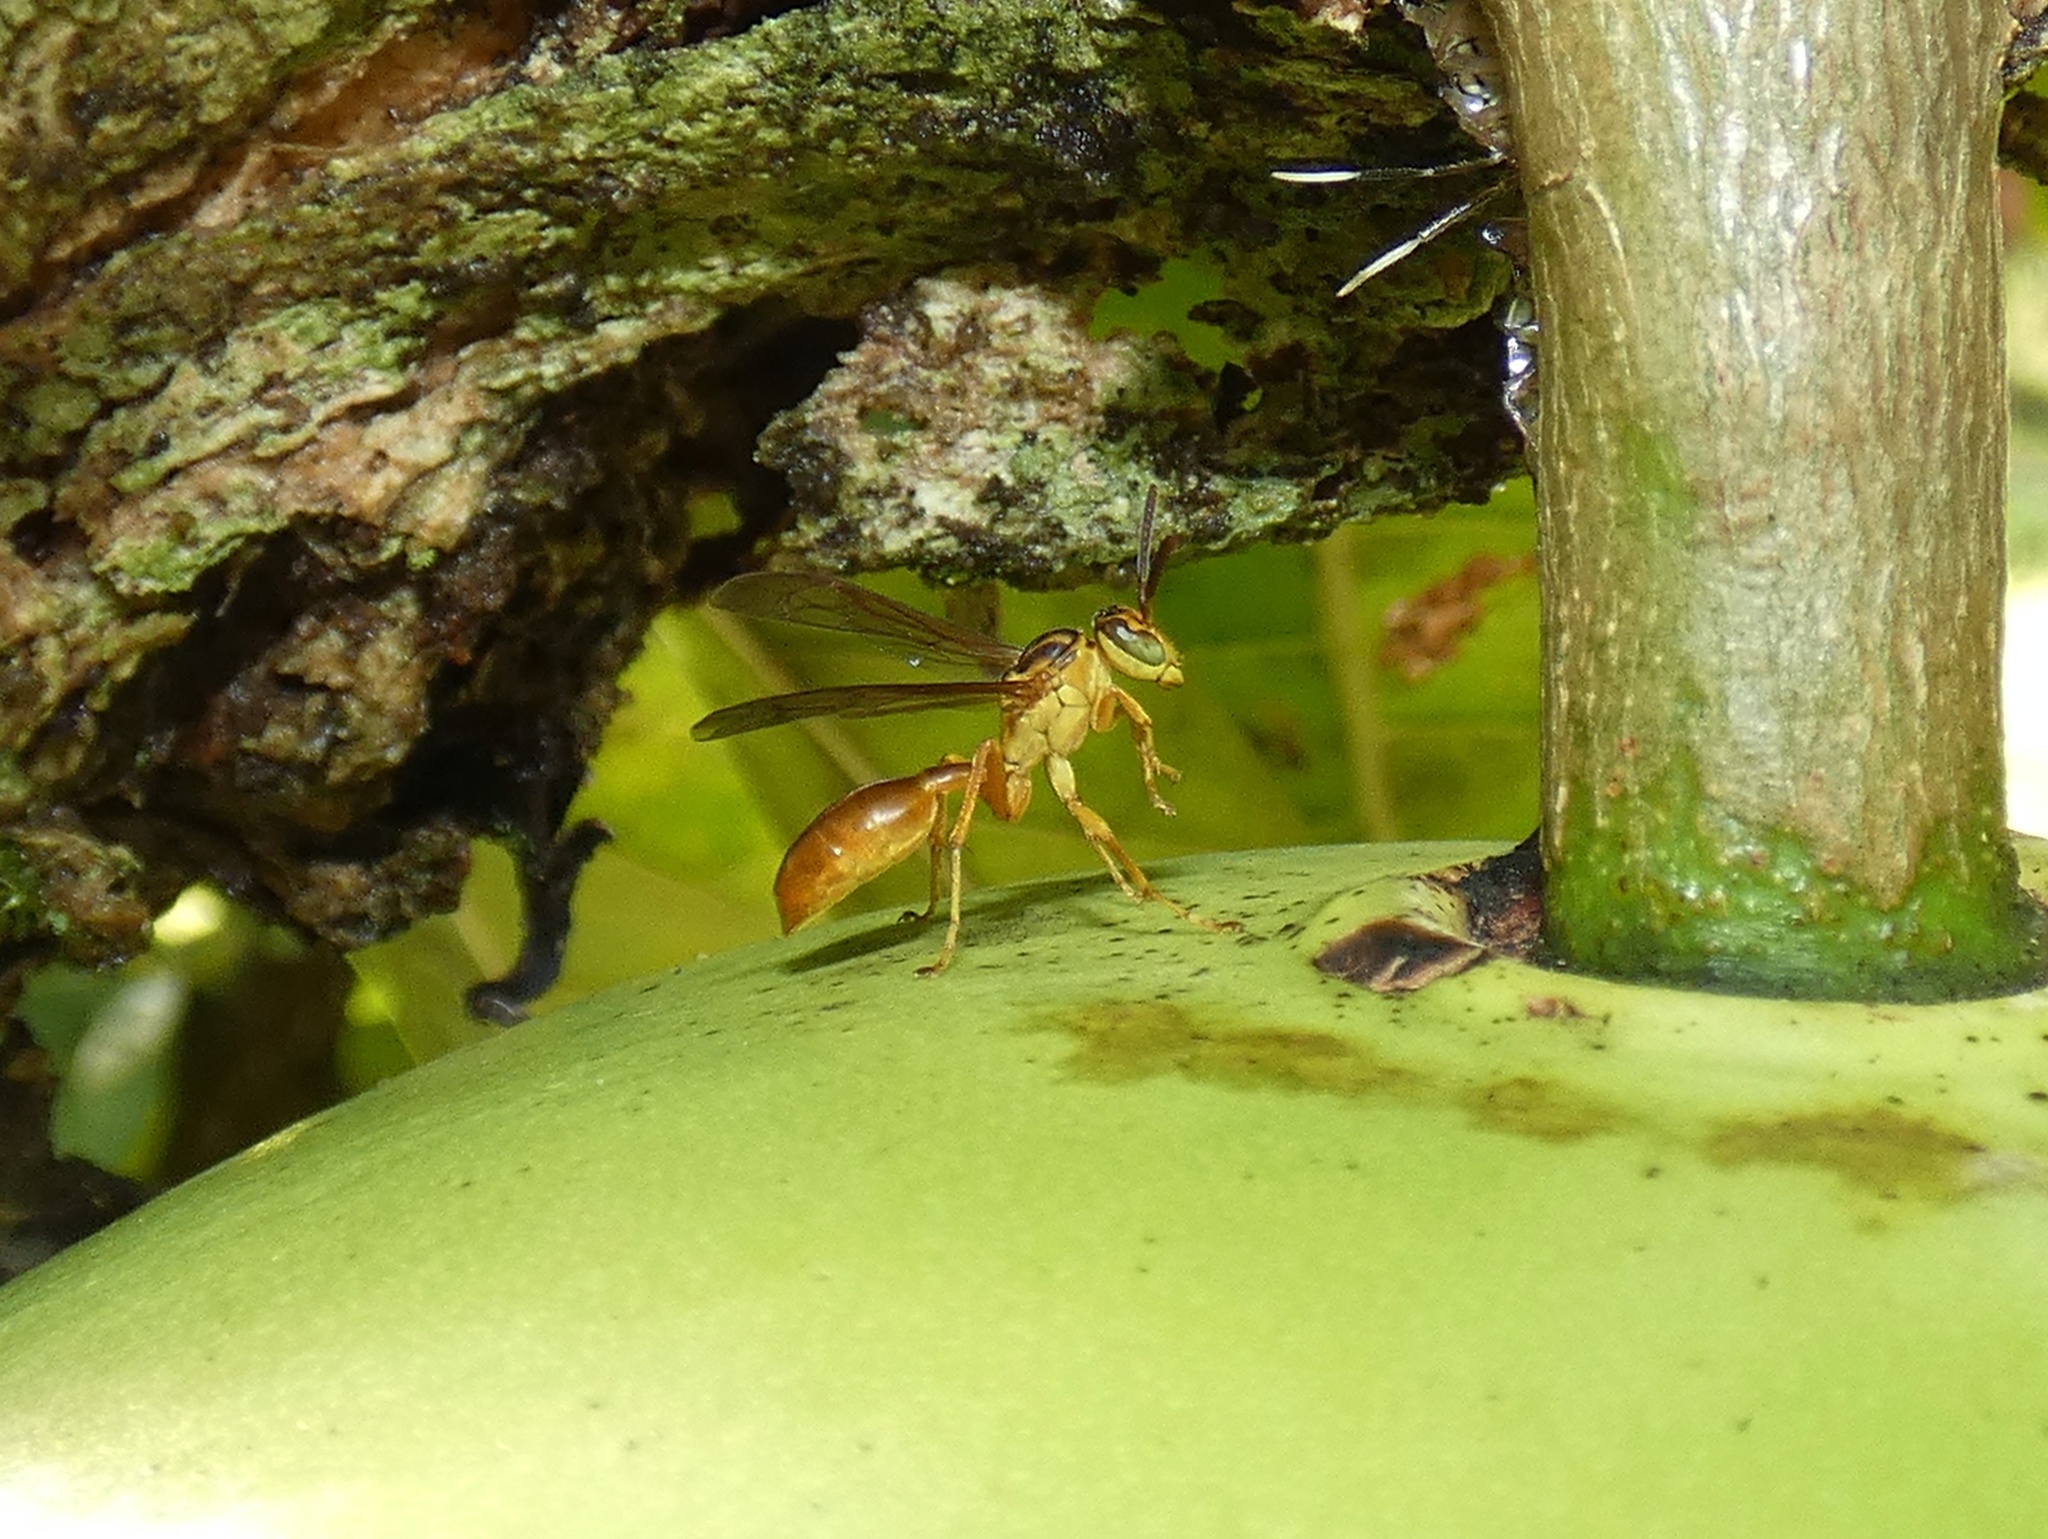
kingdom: Animalia
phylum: Arthropoda
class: Insecta
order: Hymenoptera
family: Vespidae
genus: Agelaia
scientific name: Agelaia centralis
